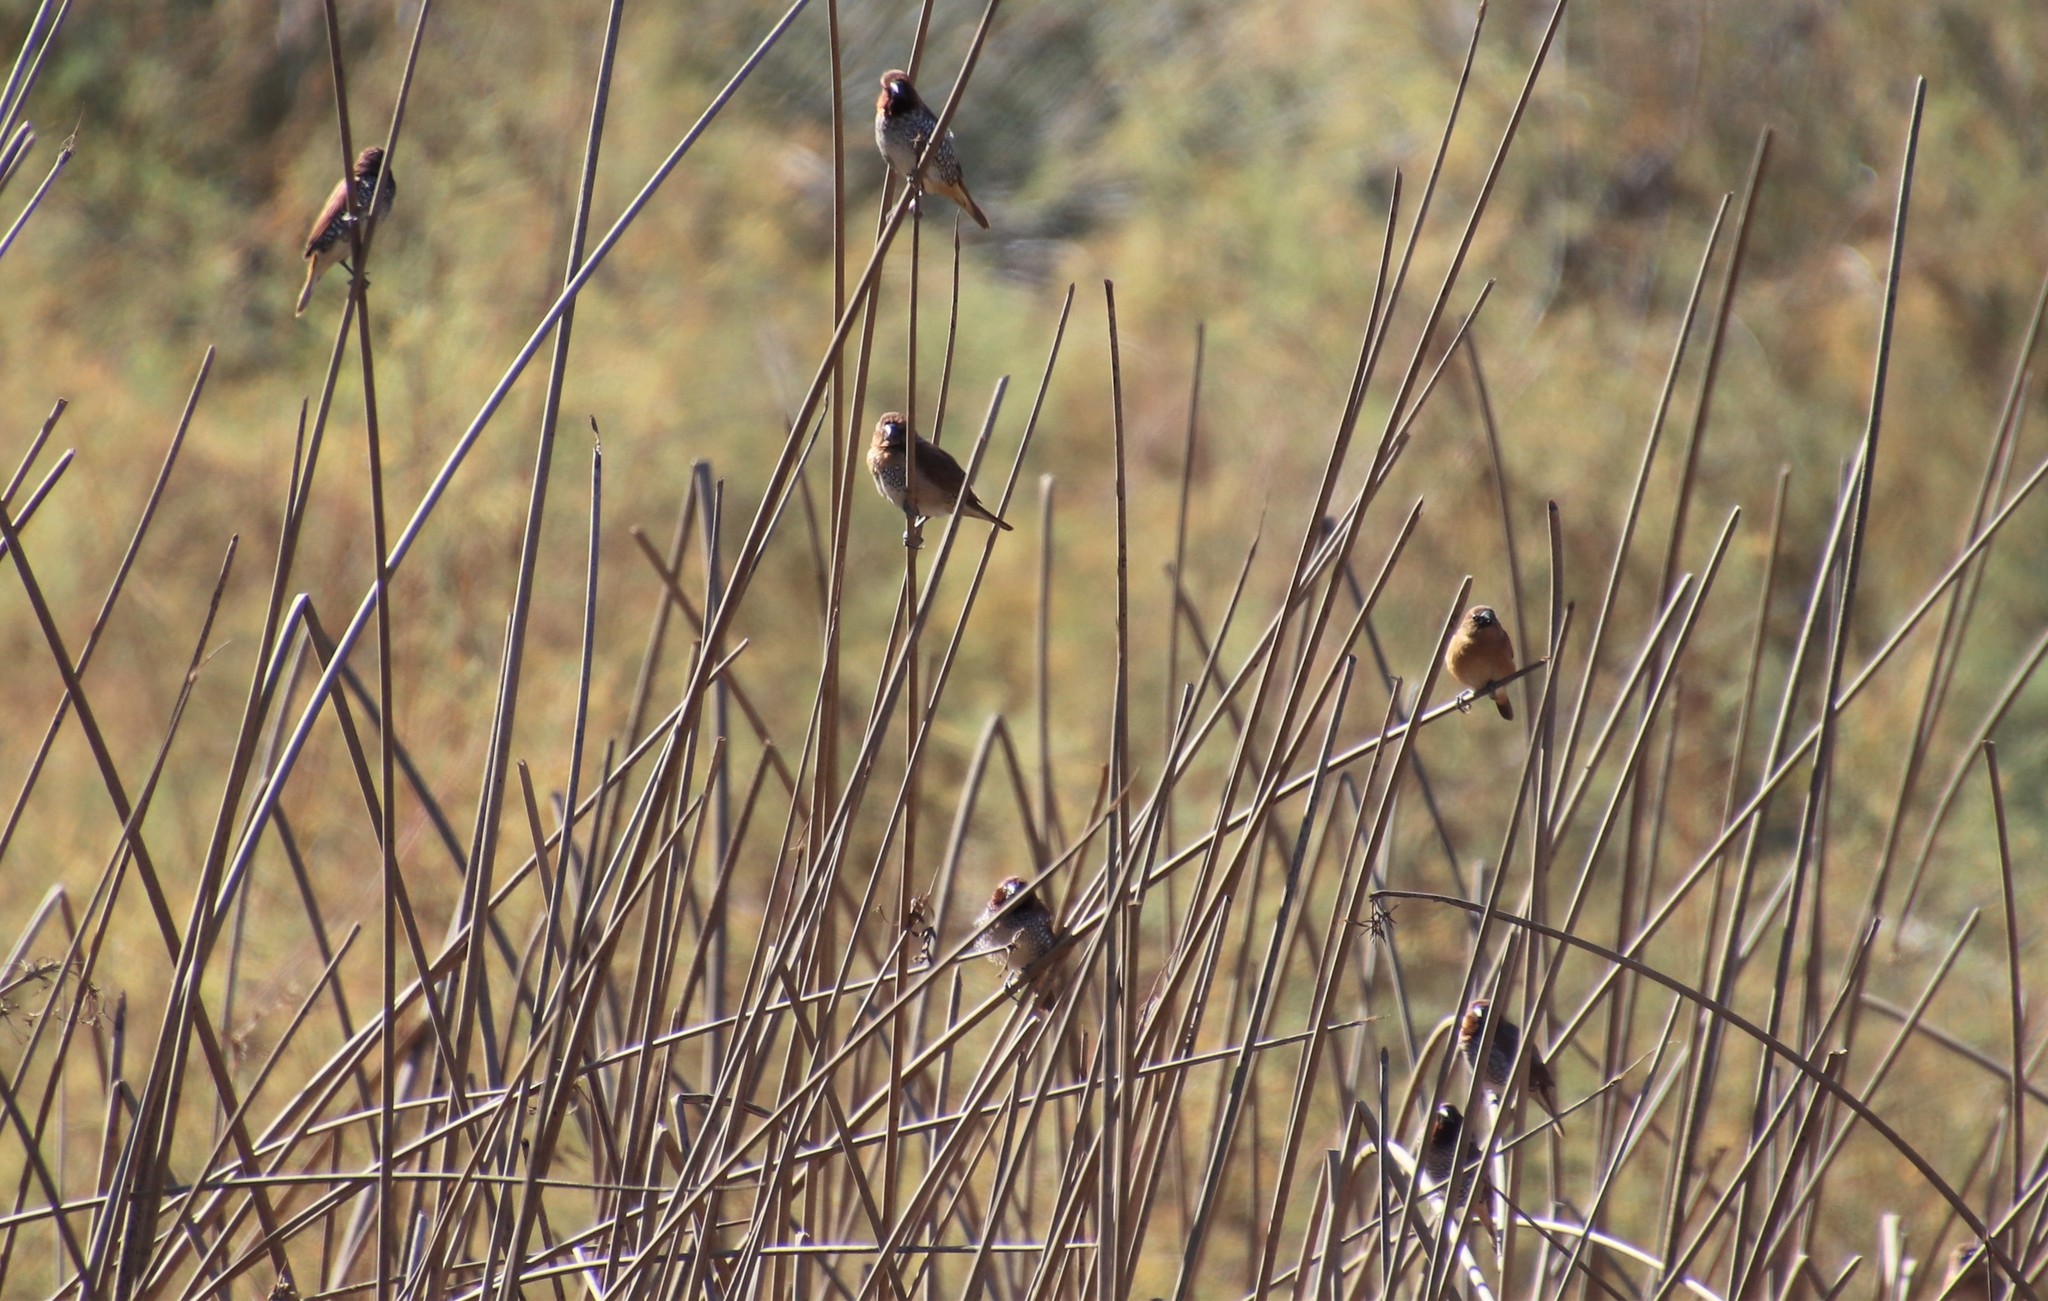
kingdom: Animalia
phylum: Chordata
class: Aves
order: Passeriformes
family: Estrildidae
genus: Lonchura
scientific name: Lonchura punctulata
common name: Scaly-breasted munia
